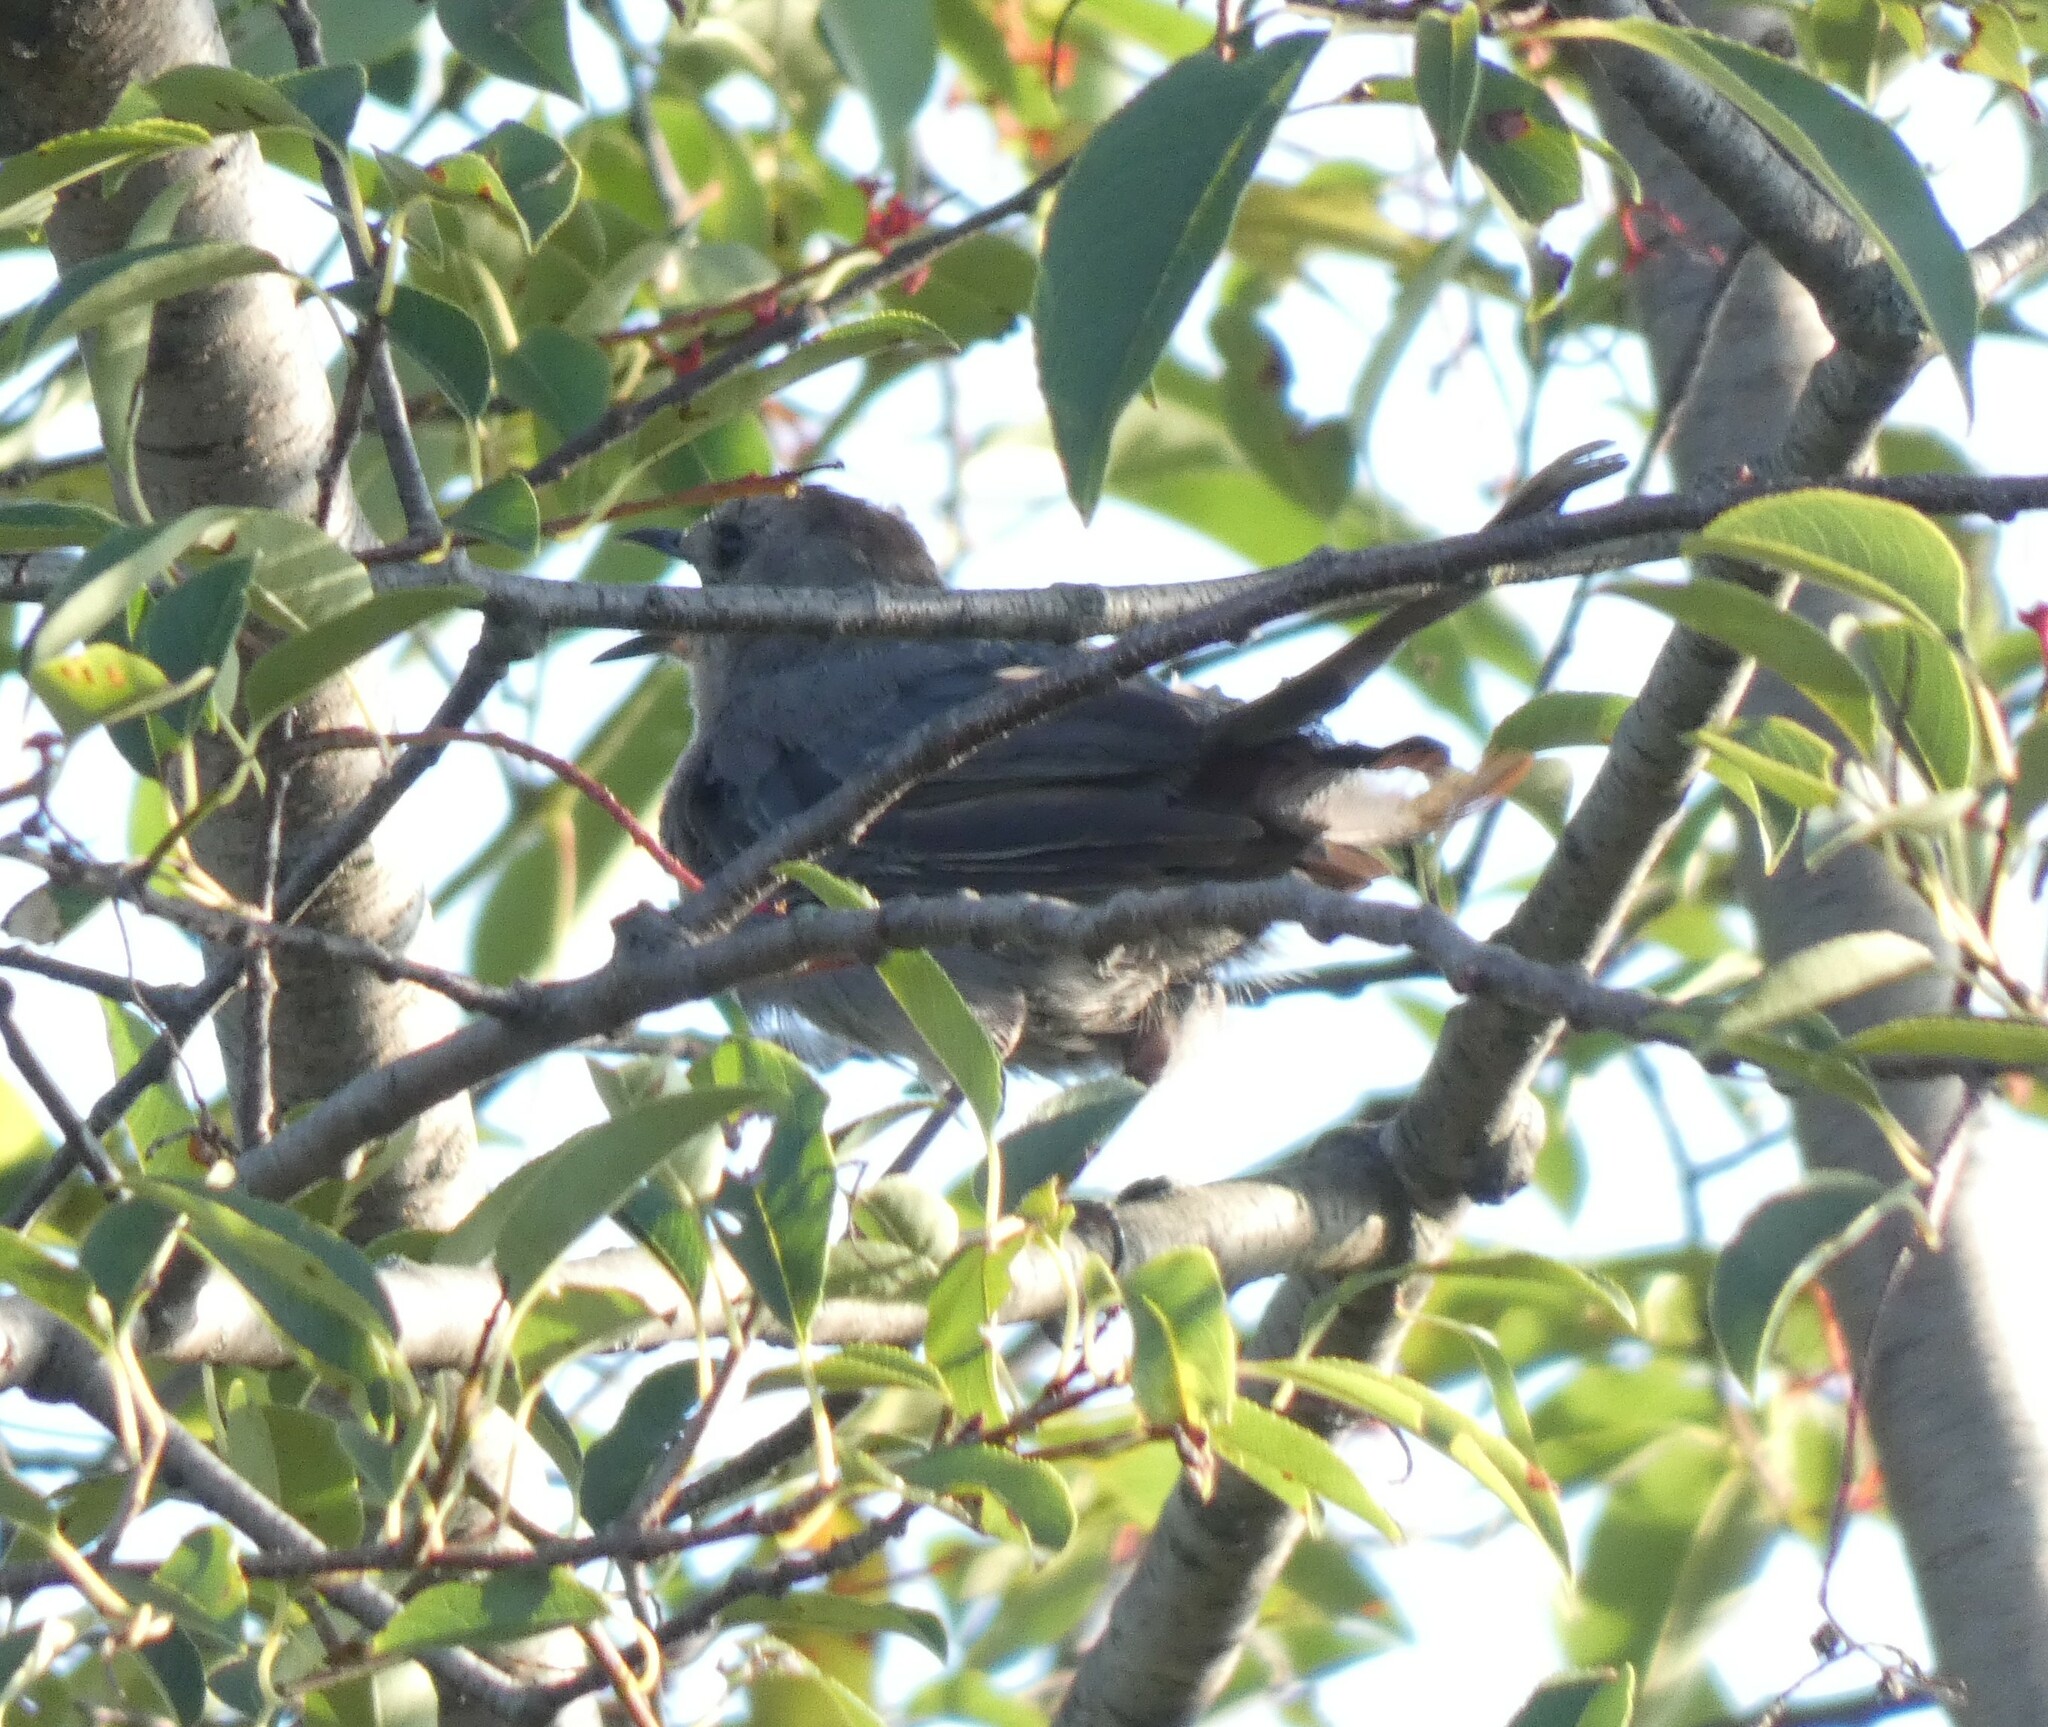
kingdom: Animalia
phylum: Chordata
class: Aves
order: Passeriformes
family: Mimidae
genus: Dumetella
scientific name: Dumetella carolinensis
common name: Gray catbird
